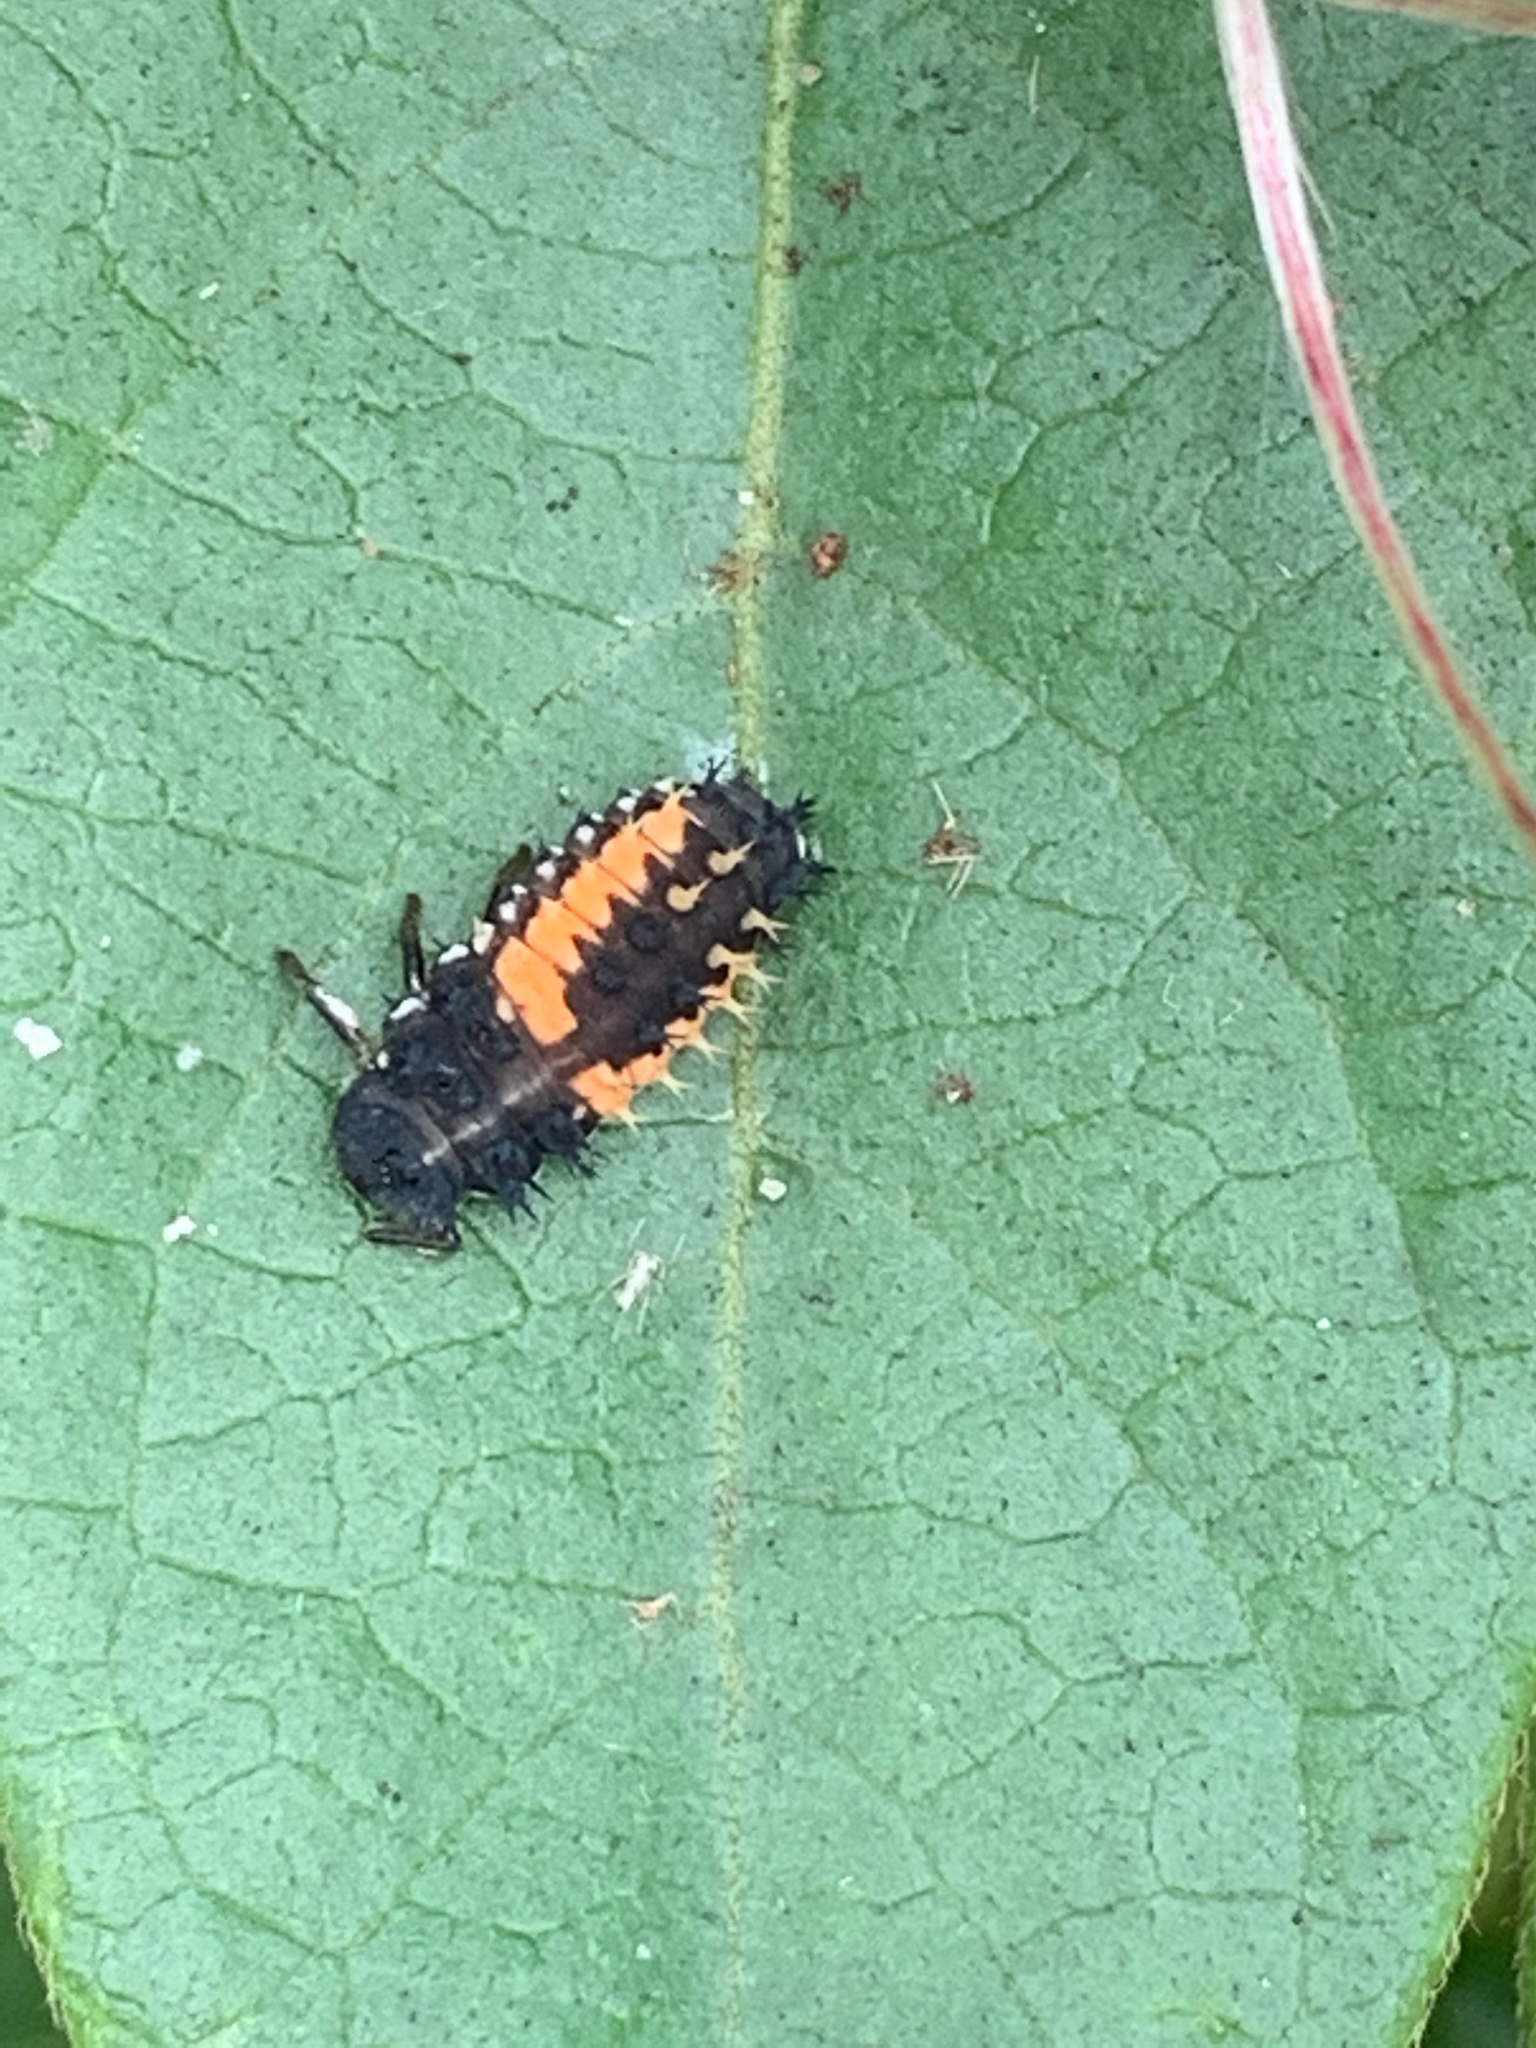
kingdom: Animalia
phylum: Arthropoda
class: Insecta
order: Coleoptera
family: Coccinellidae
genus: Harmonia
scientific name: Harmonia axyridis
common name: Harlequin ladybird
